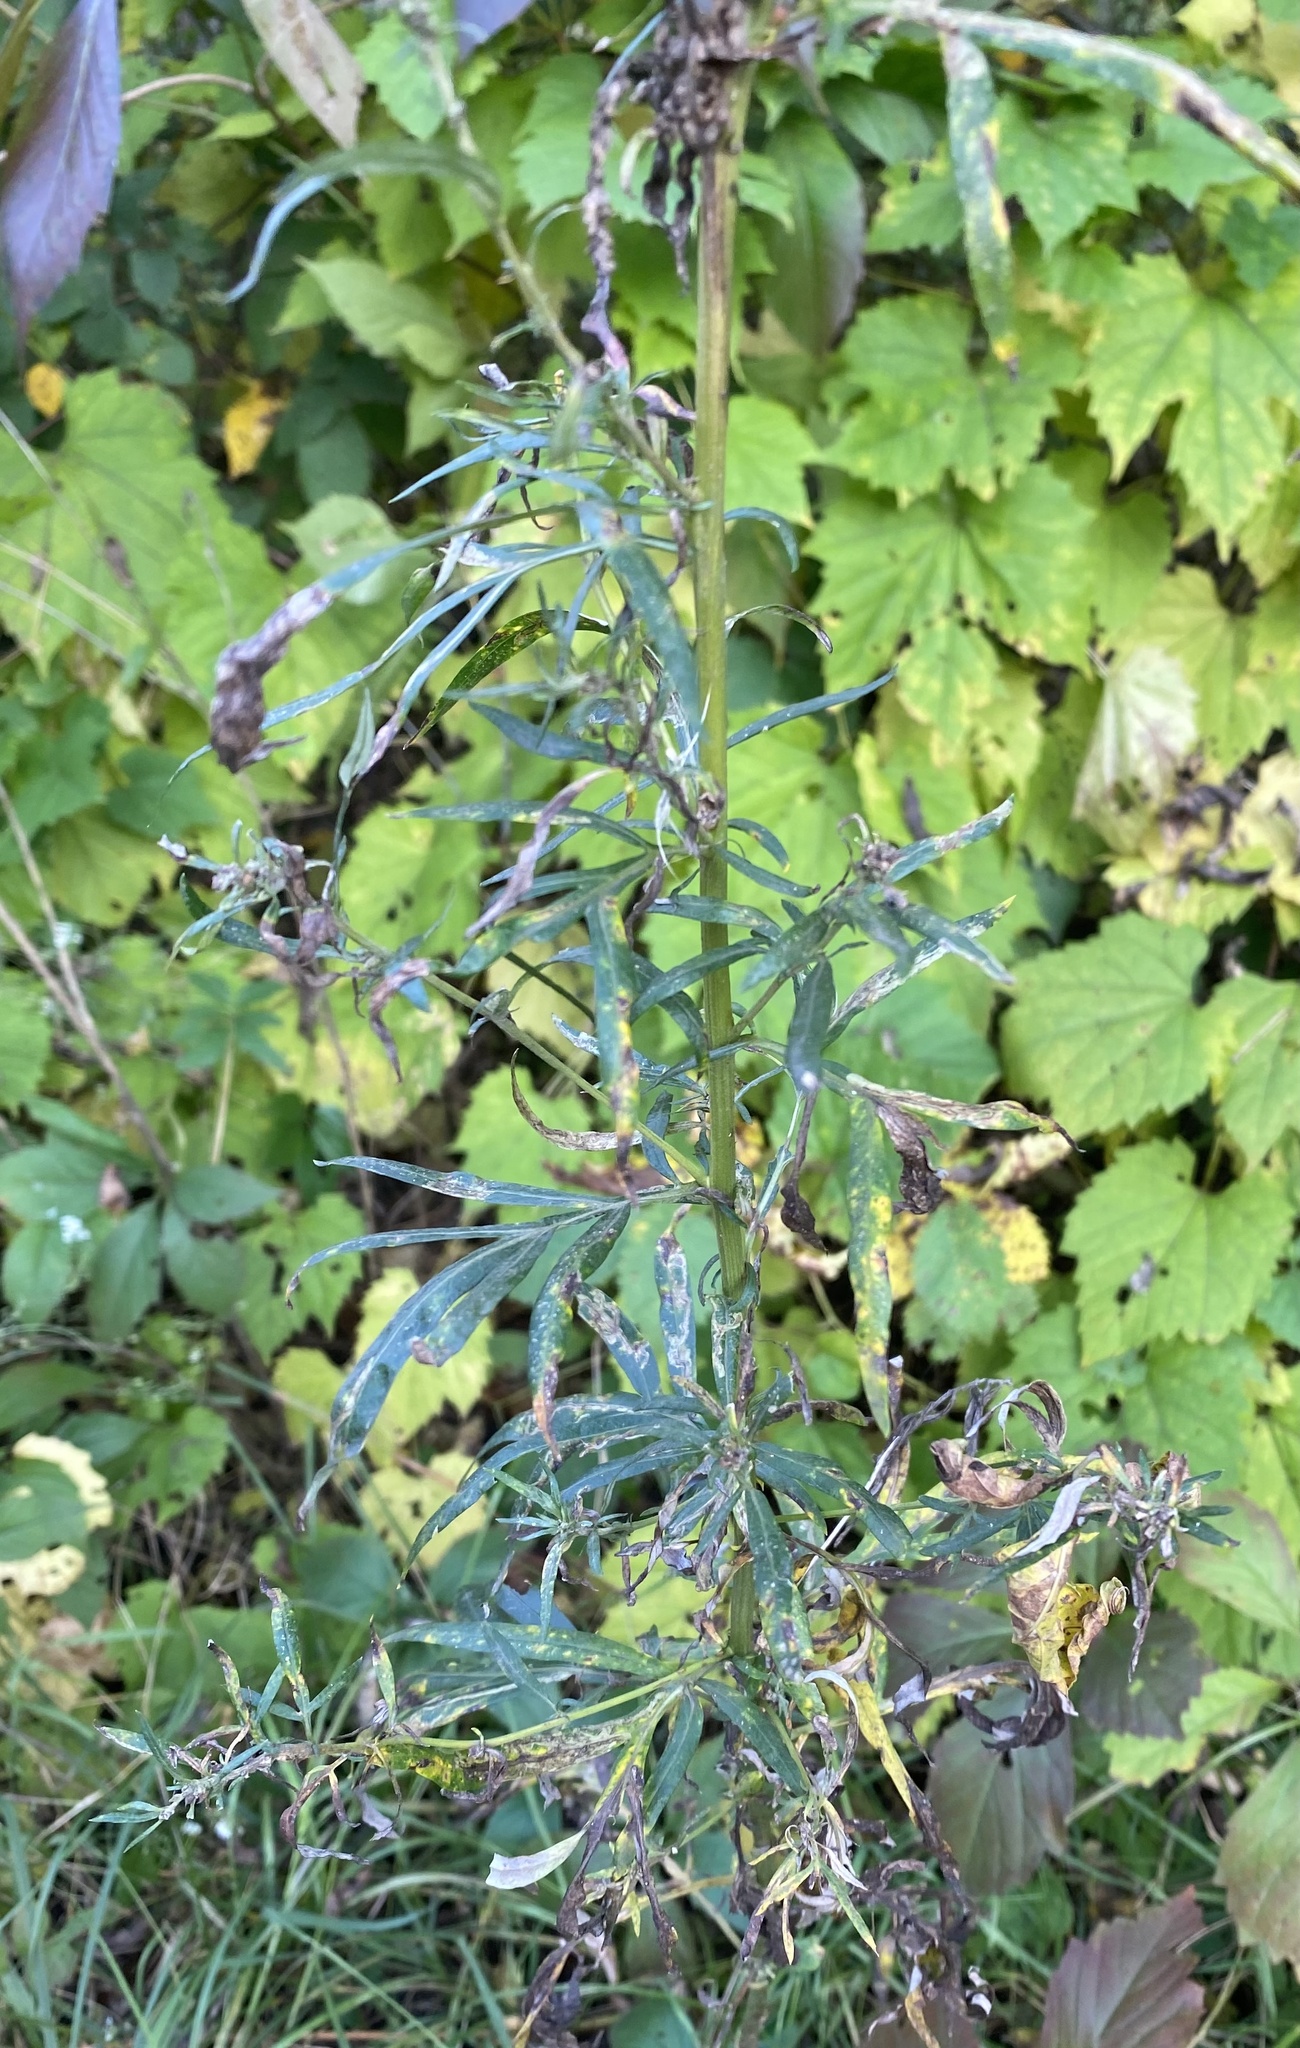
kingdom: Plantae
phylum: Tracheophyta
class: Magnoliopsida
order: Asterales
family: Asteraceae
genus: Artemisia
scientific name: Artemisia vulgaris
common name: Mugwort
